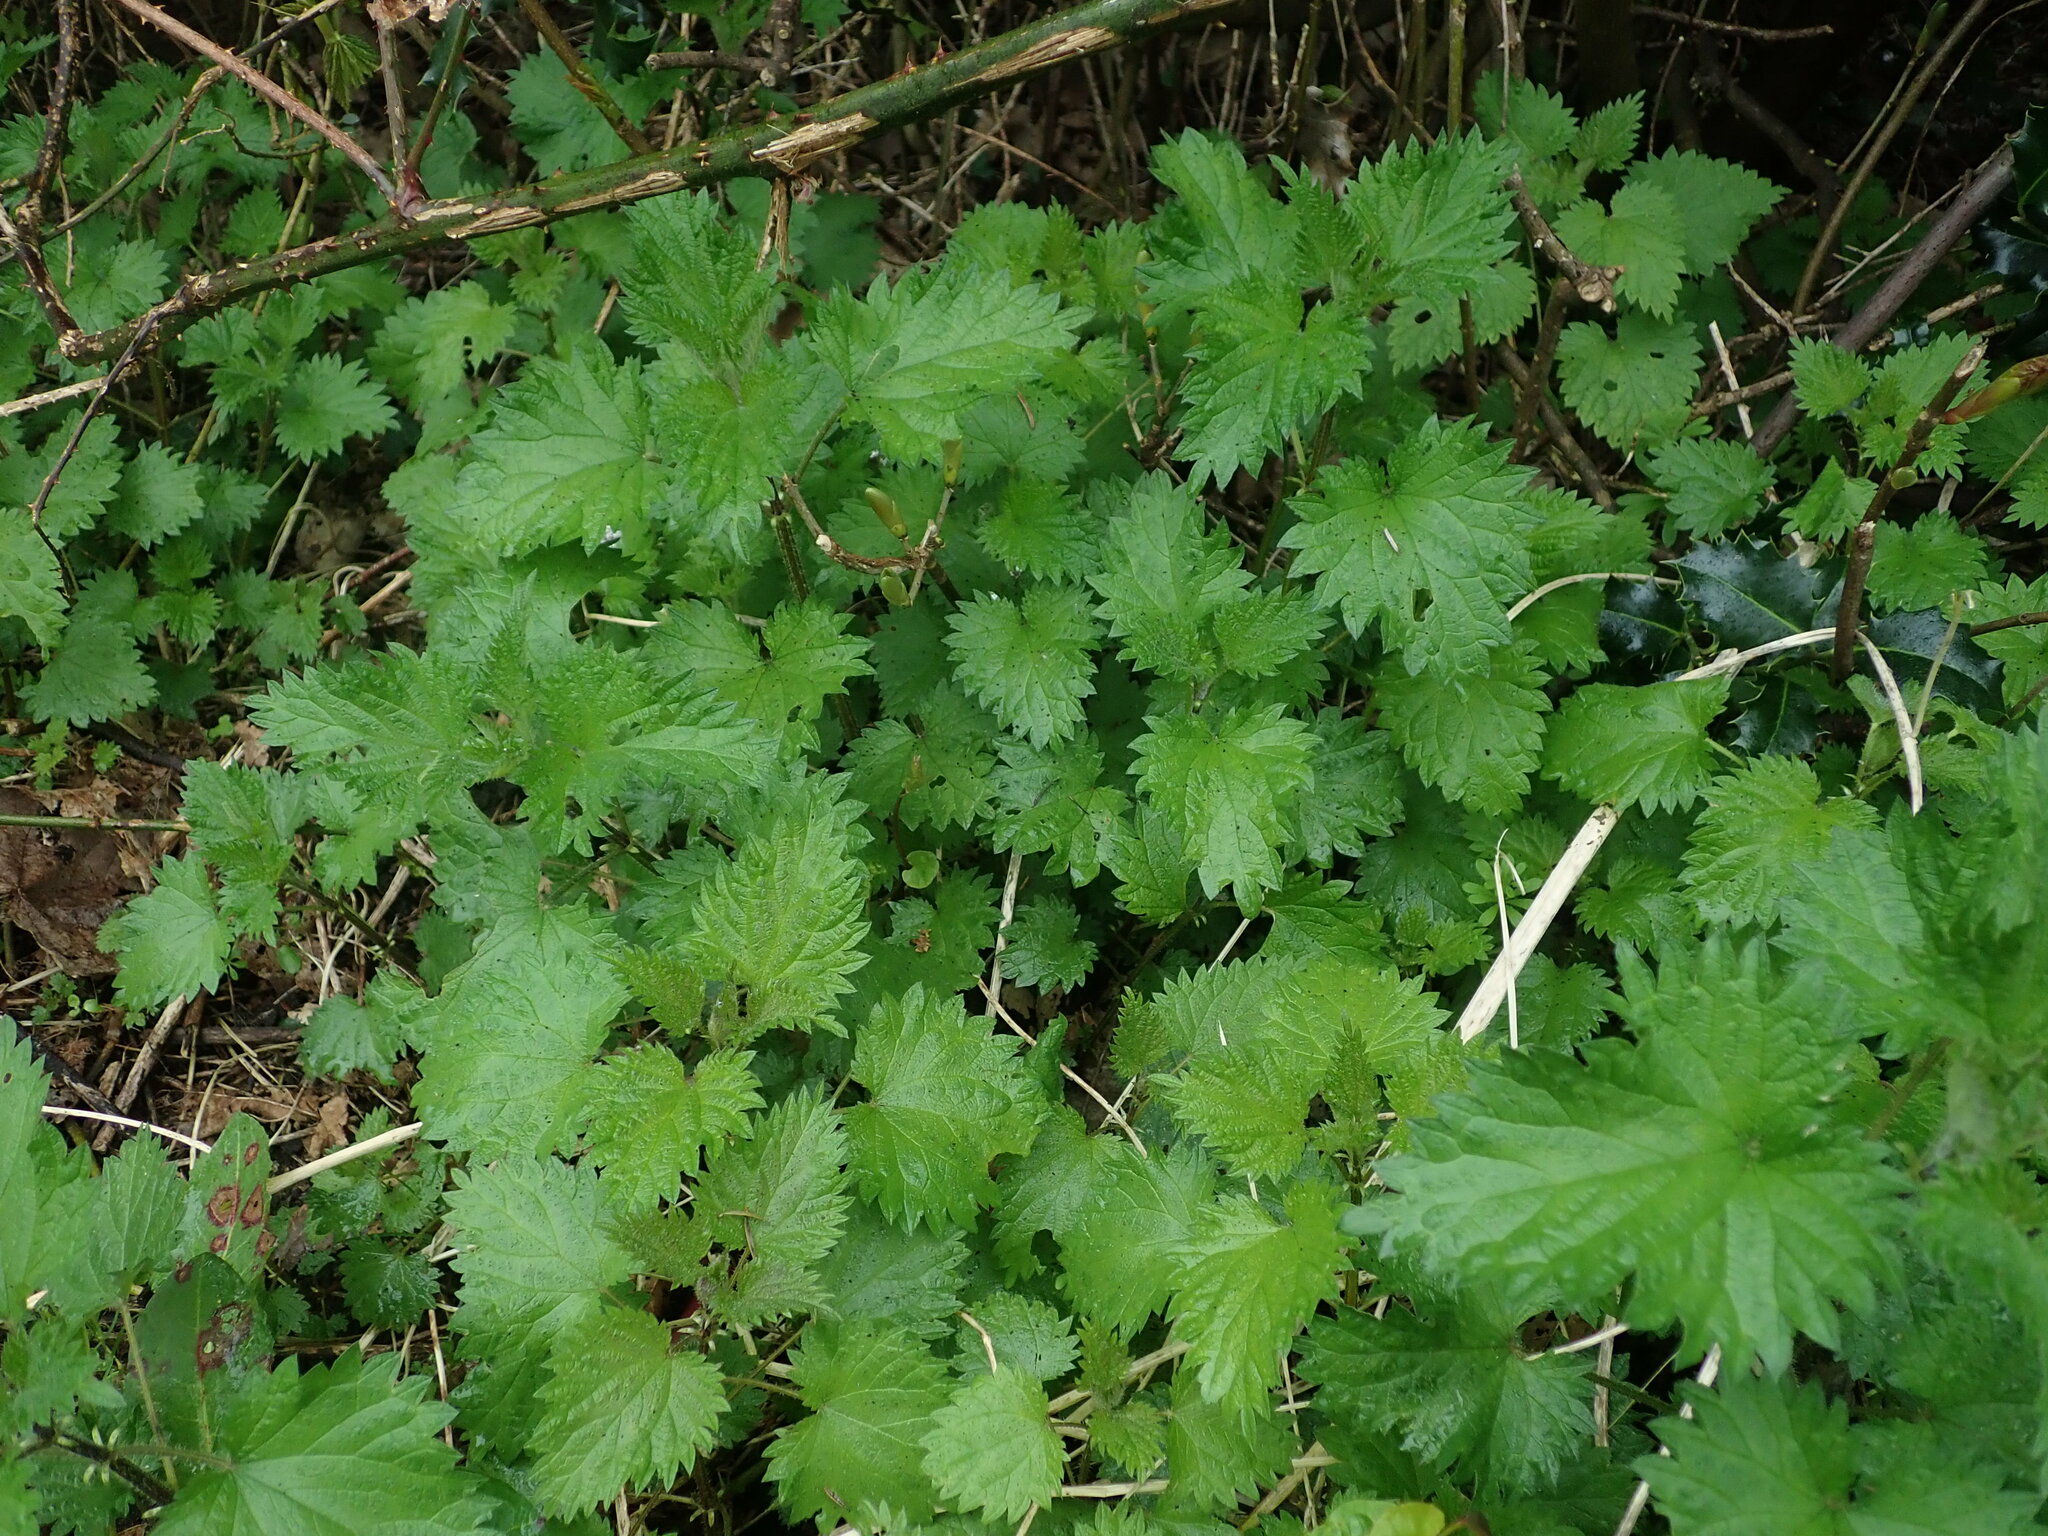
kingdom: Plantae
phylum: Tracheophyta
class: Magnoliopsida
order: Rosales
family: Urticaceae
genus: Urtica
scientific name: Urtica dioica
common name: Common nettle
